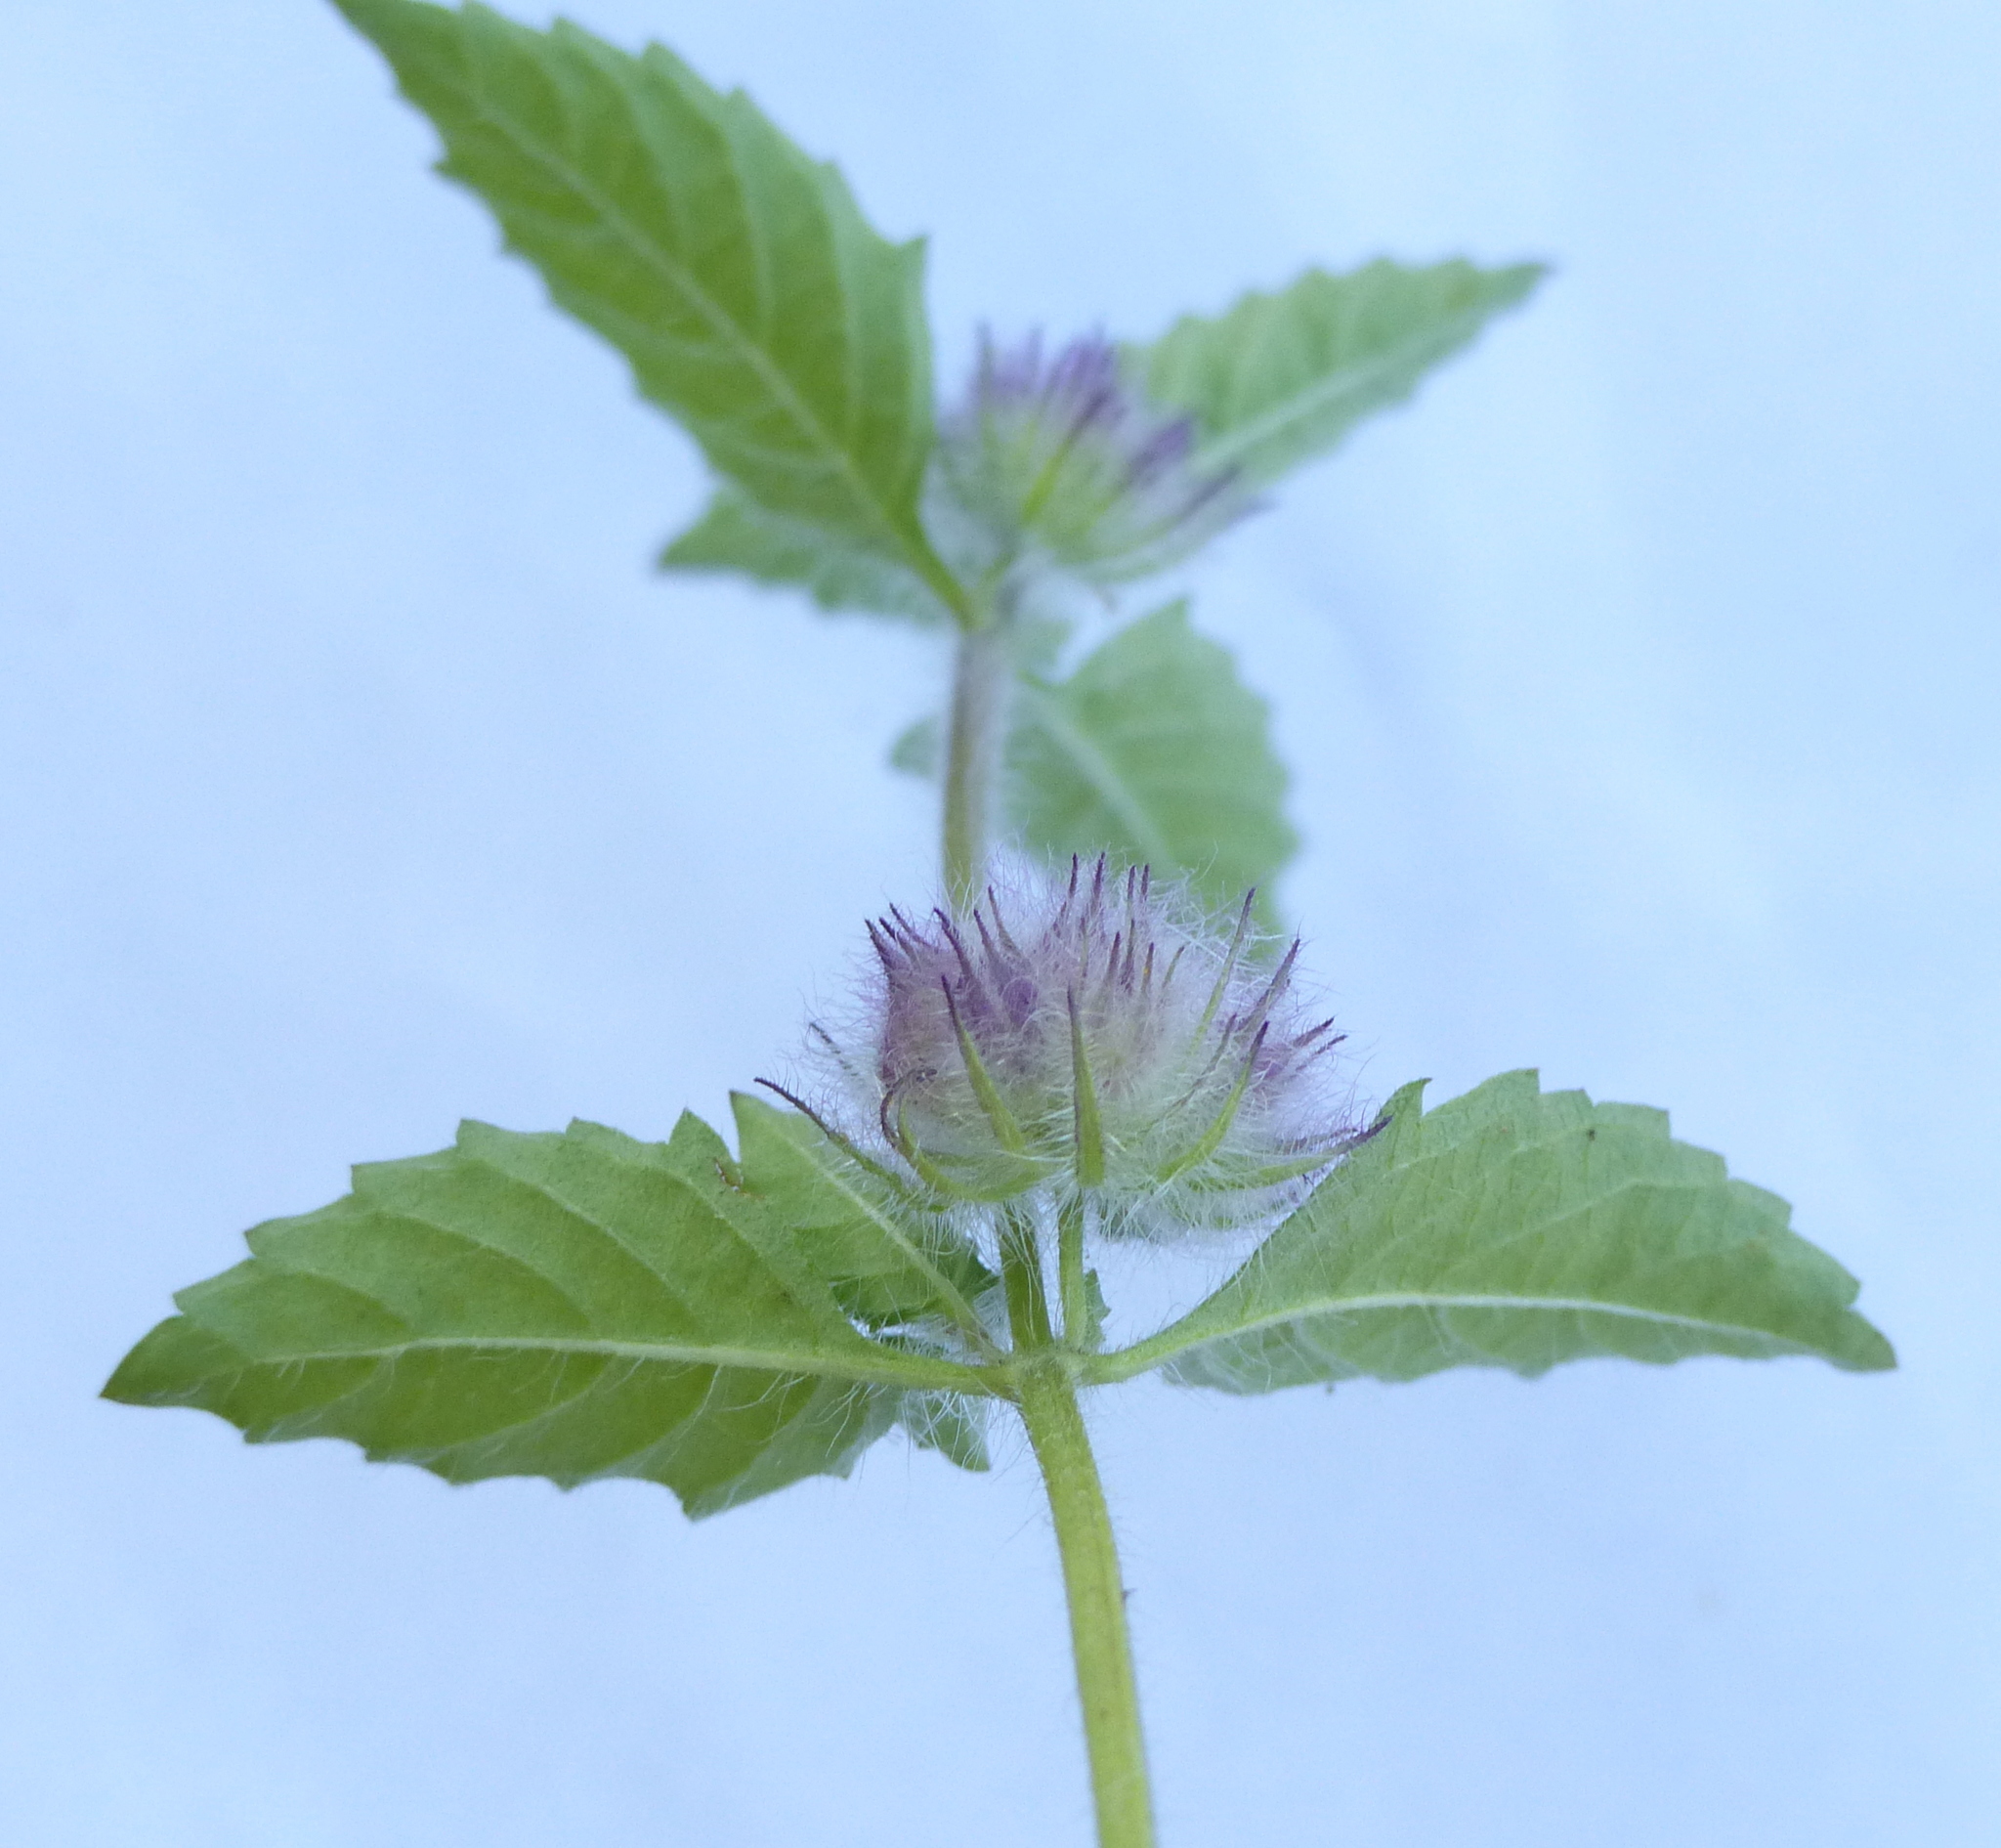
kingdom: Plantae
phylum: Tracheophyta
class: Magnoliopsida
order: Lamiales
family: Lamiaceae
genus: Marsypianthes
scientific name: Marsypianthes chamaedrys
